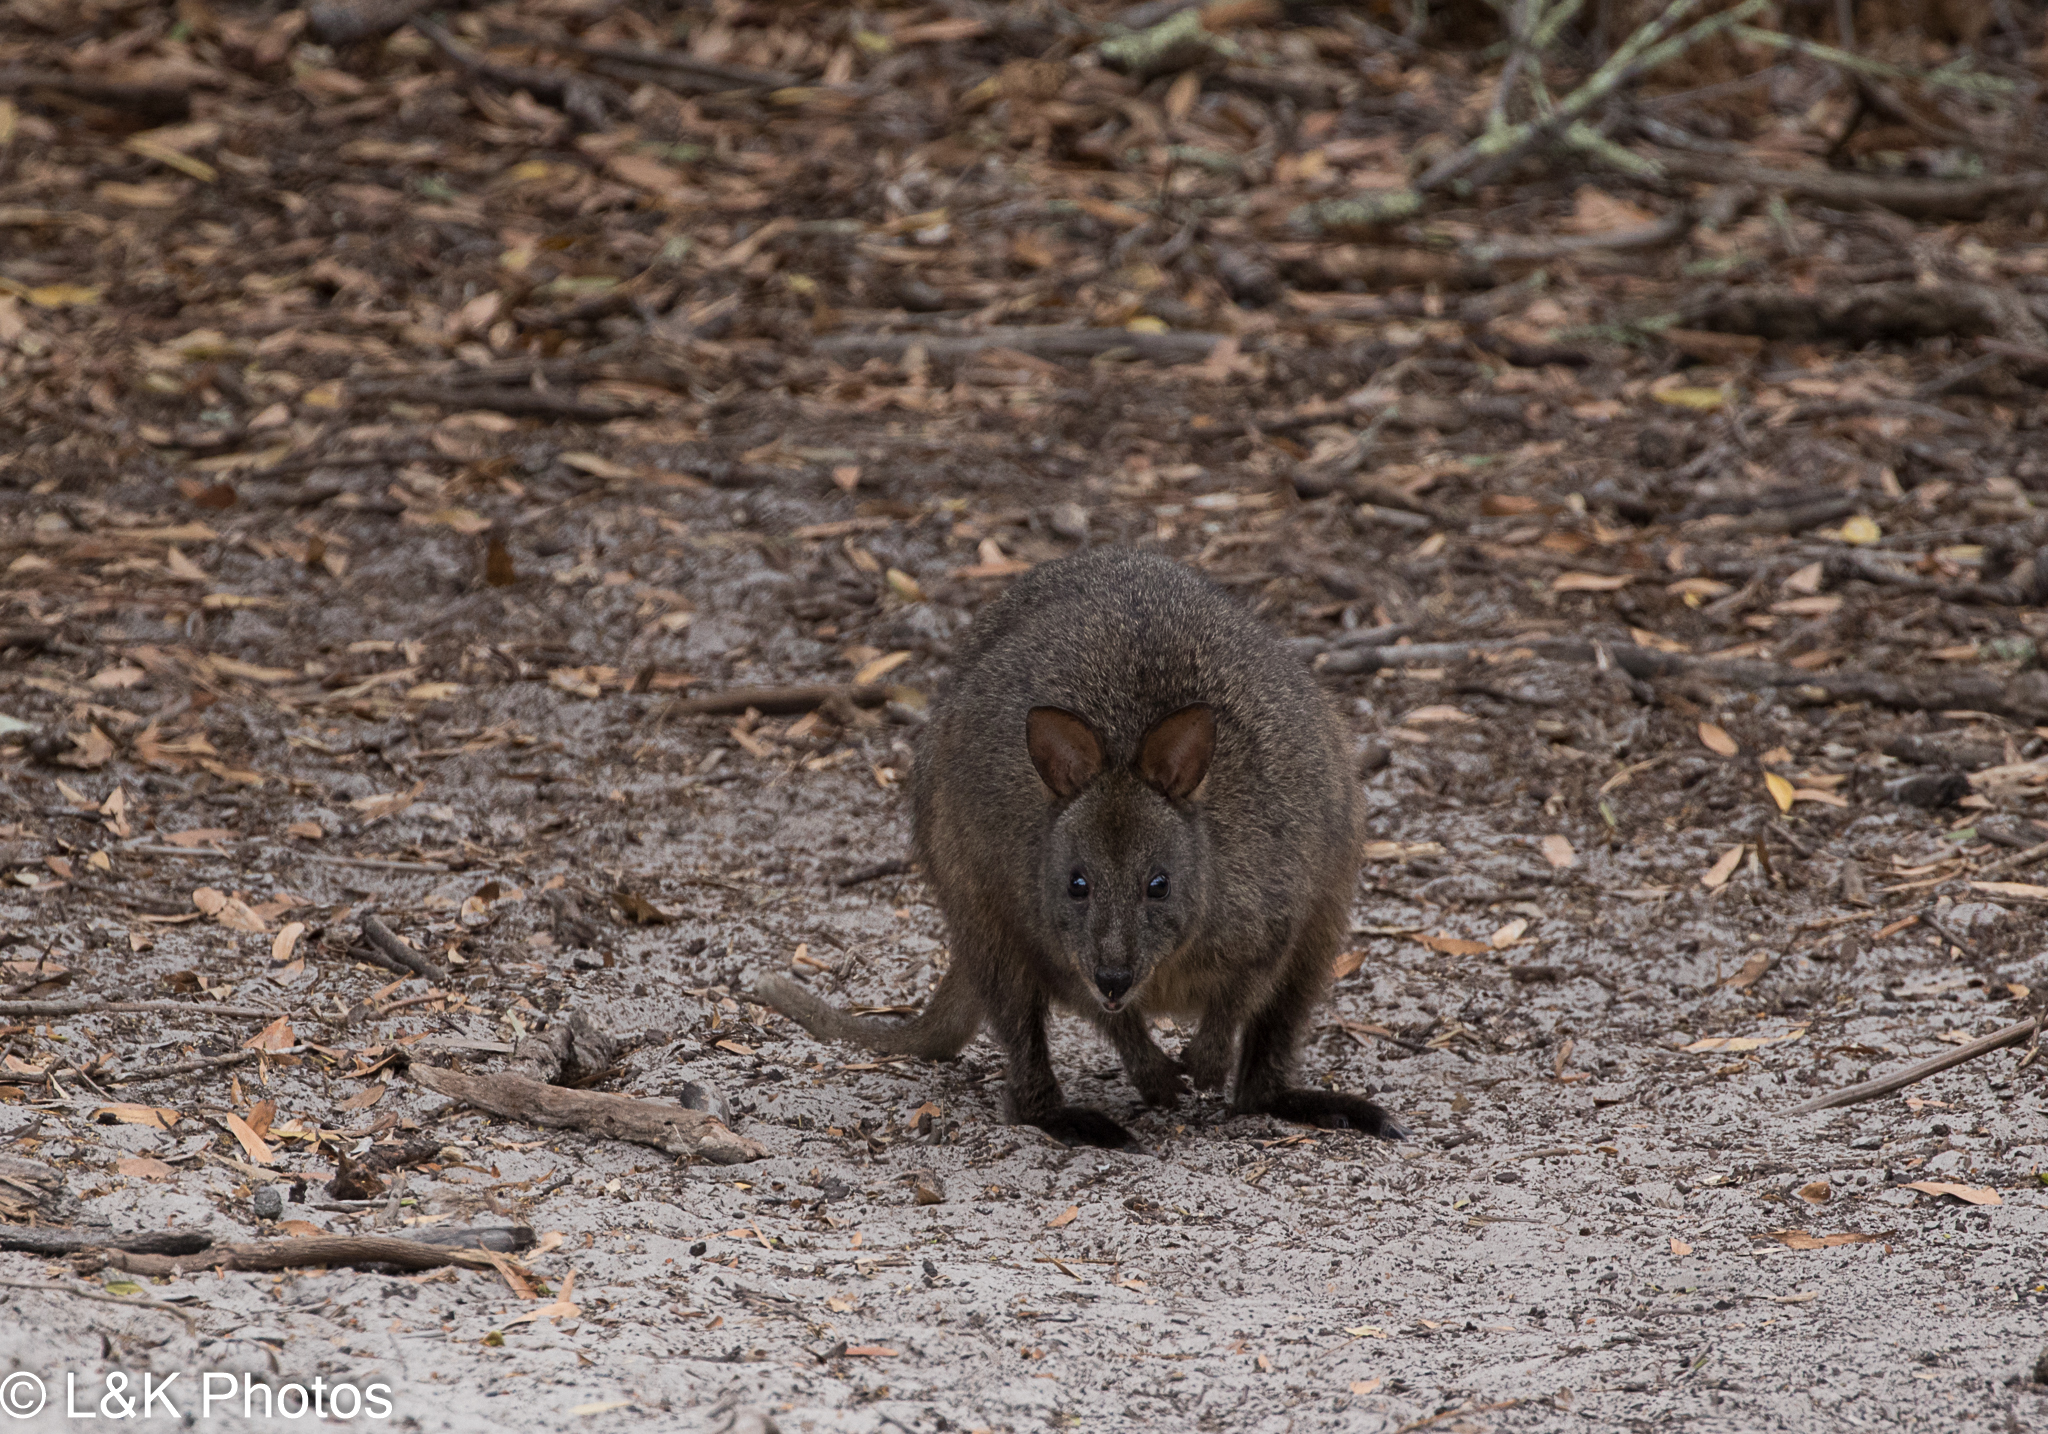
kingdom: Animalia
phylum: Chordata
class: Mammalia
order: Diprotodontia
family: Macropodidae
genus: Thylogale
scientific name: Thylogale billardierii
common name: Tasmanian pademelon
